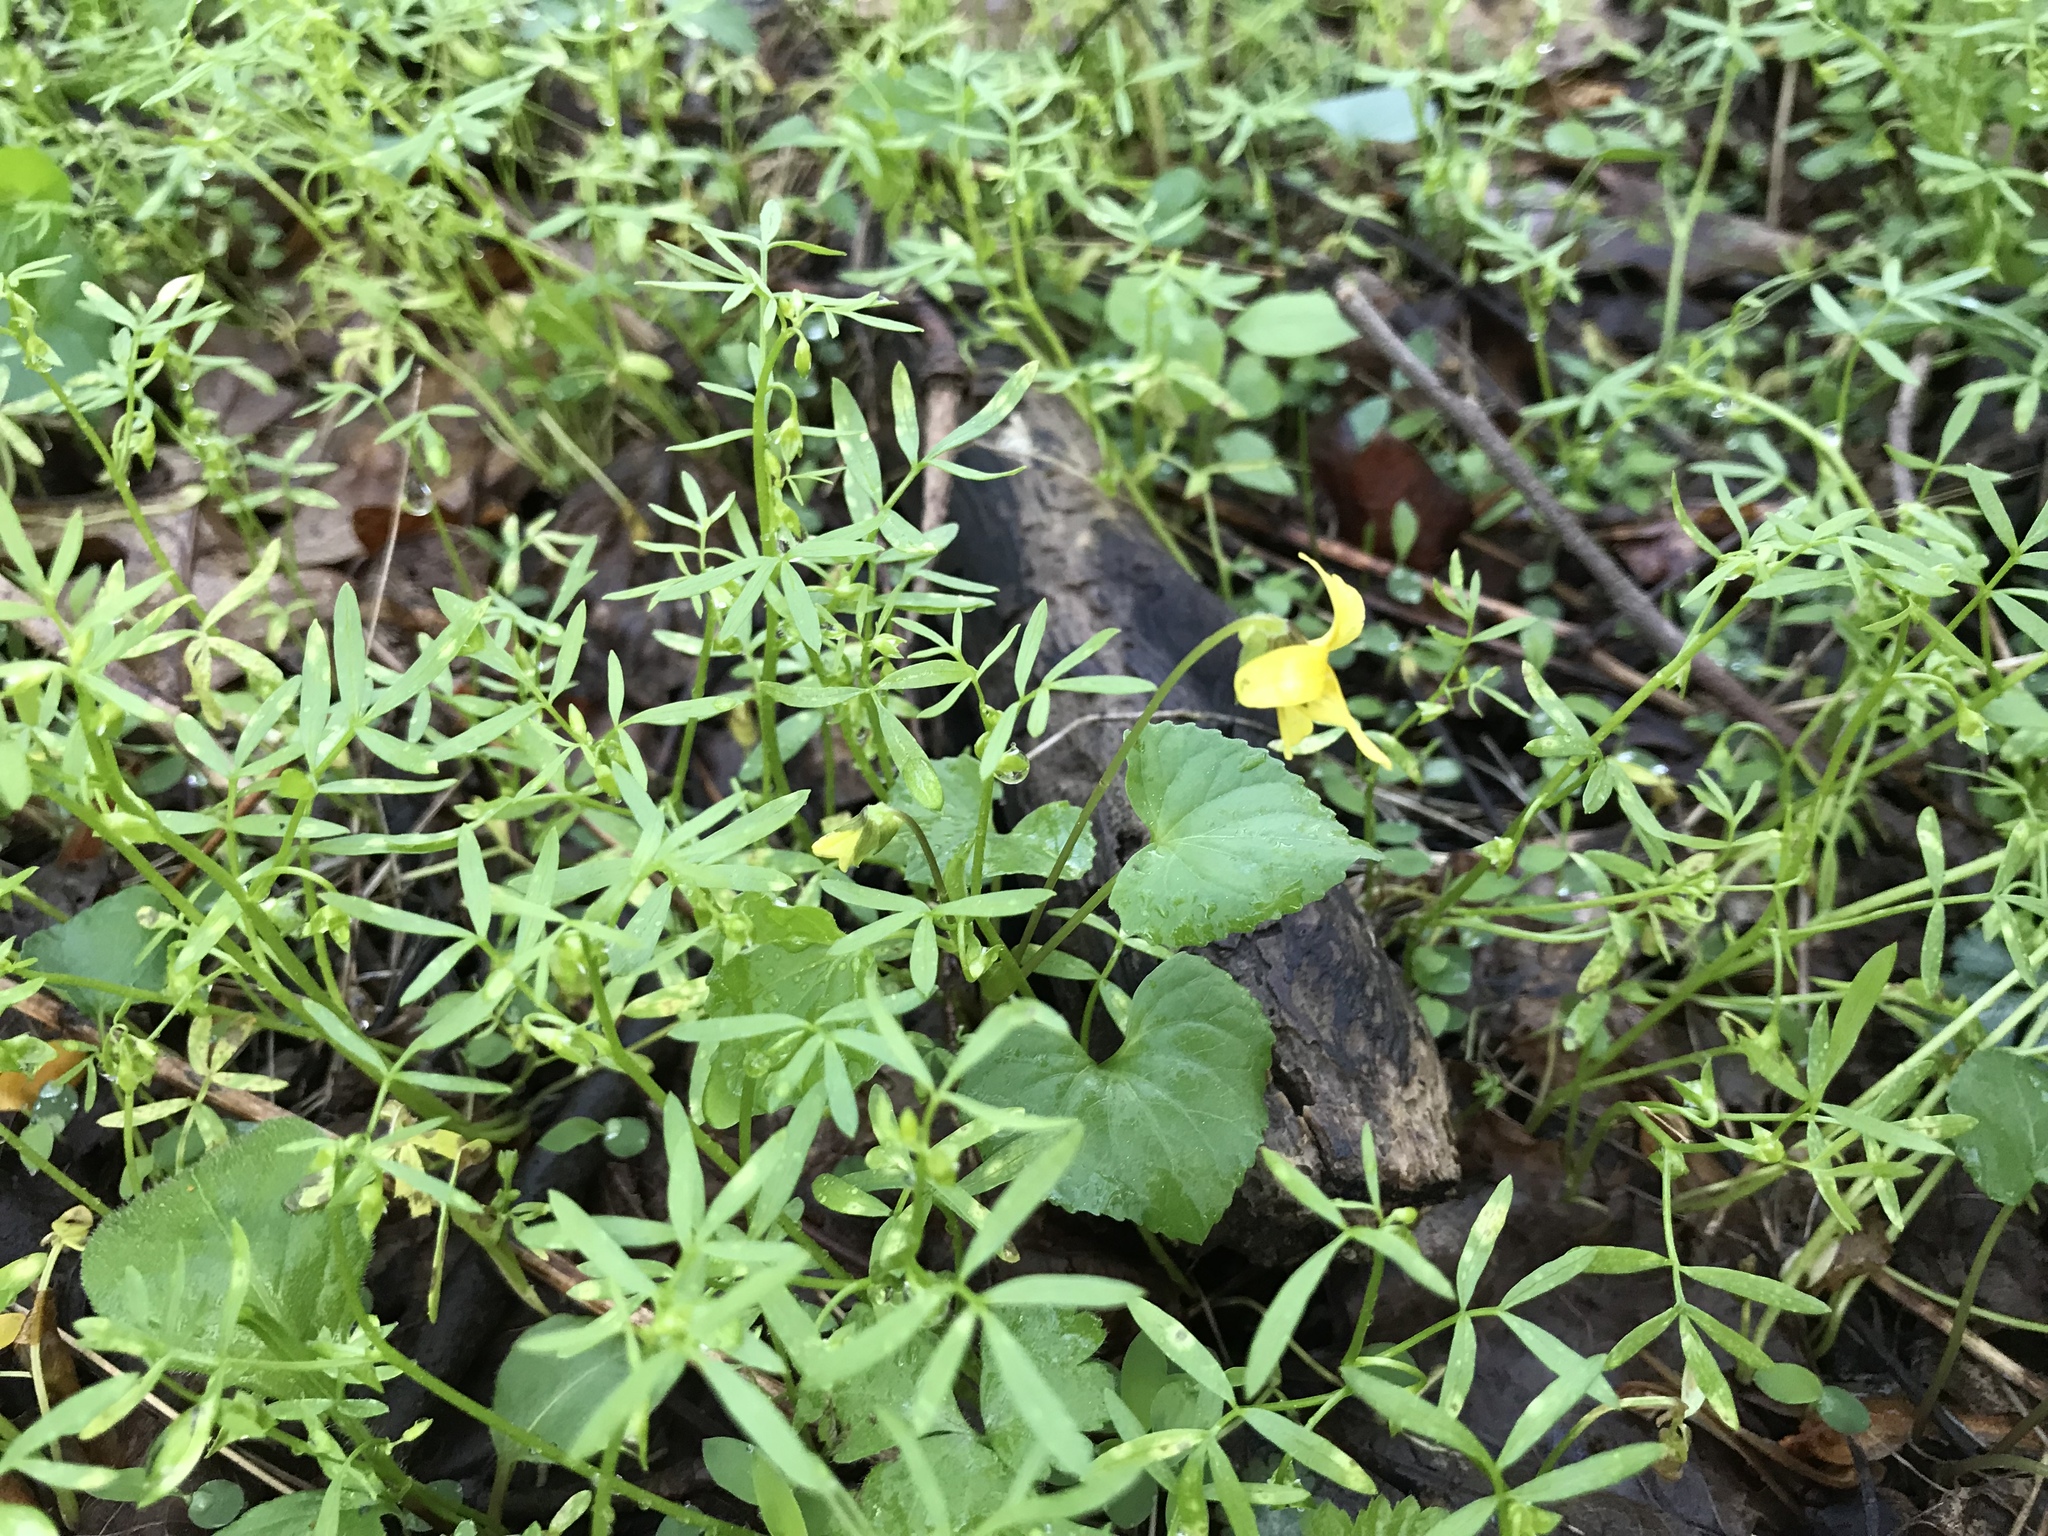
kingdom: Plantae
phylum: Tracheophyta
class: Magnoliopsida
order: Malpighiales
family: Violaceae
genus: Viola
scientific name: Viola eriocarpa
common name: Smooth yellow violet
